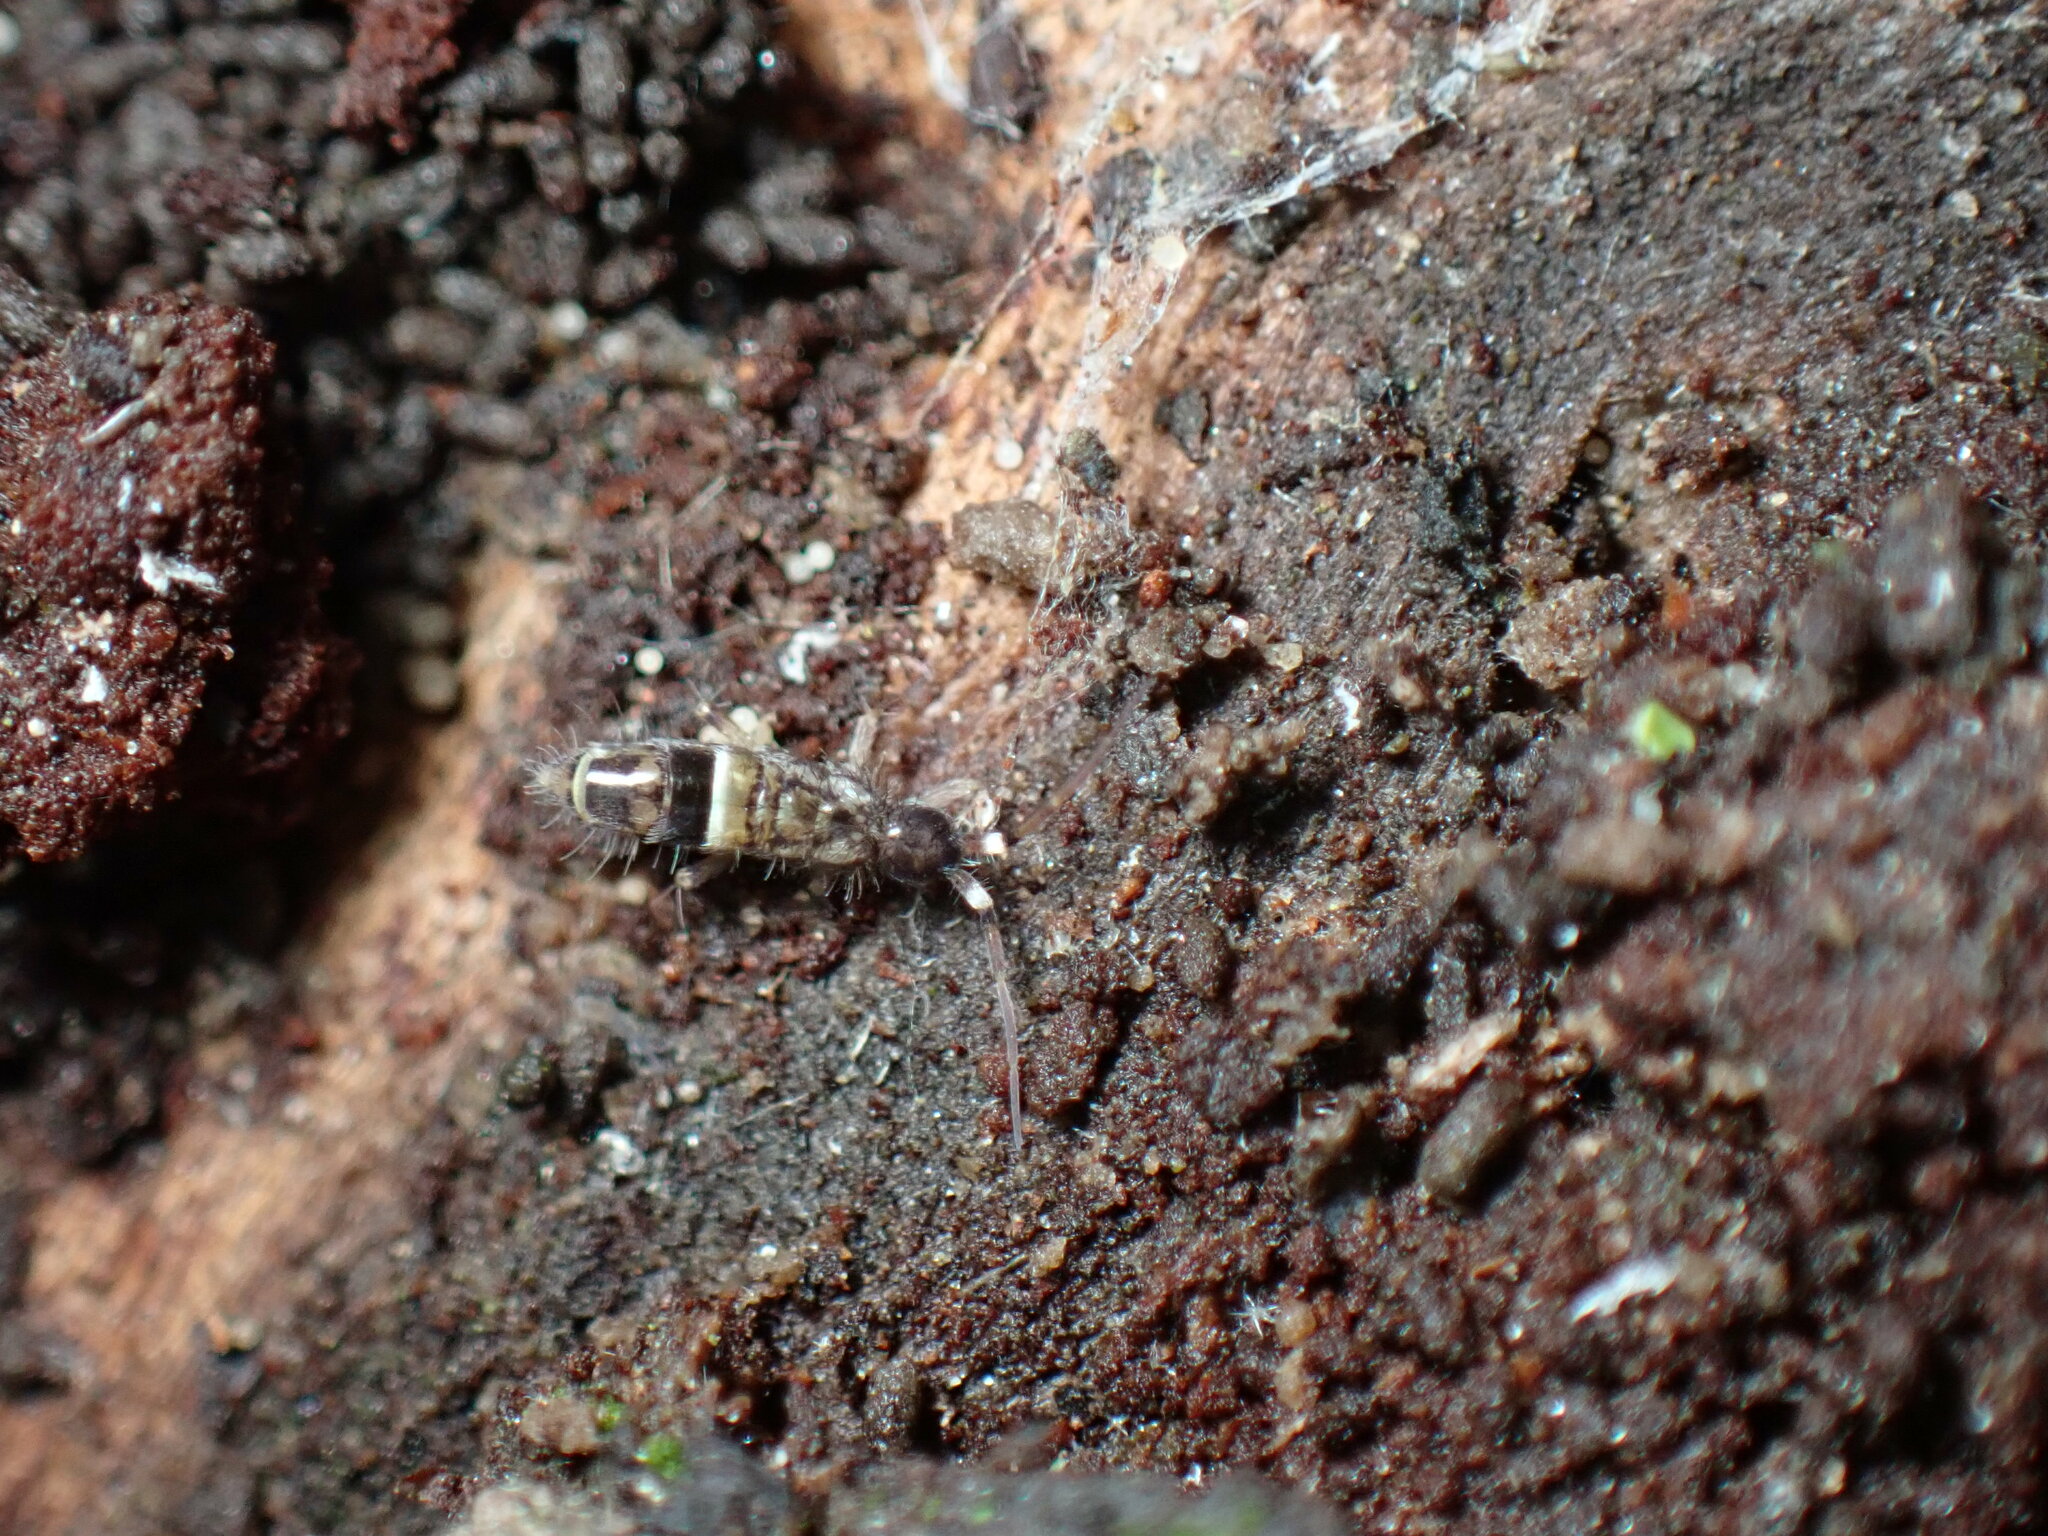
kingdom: Animalia
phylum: Arthropoda
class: Collembola
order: Entomobryomorpha
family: Orchesellidae
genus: Orchesella
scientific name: Orchesella cincta
